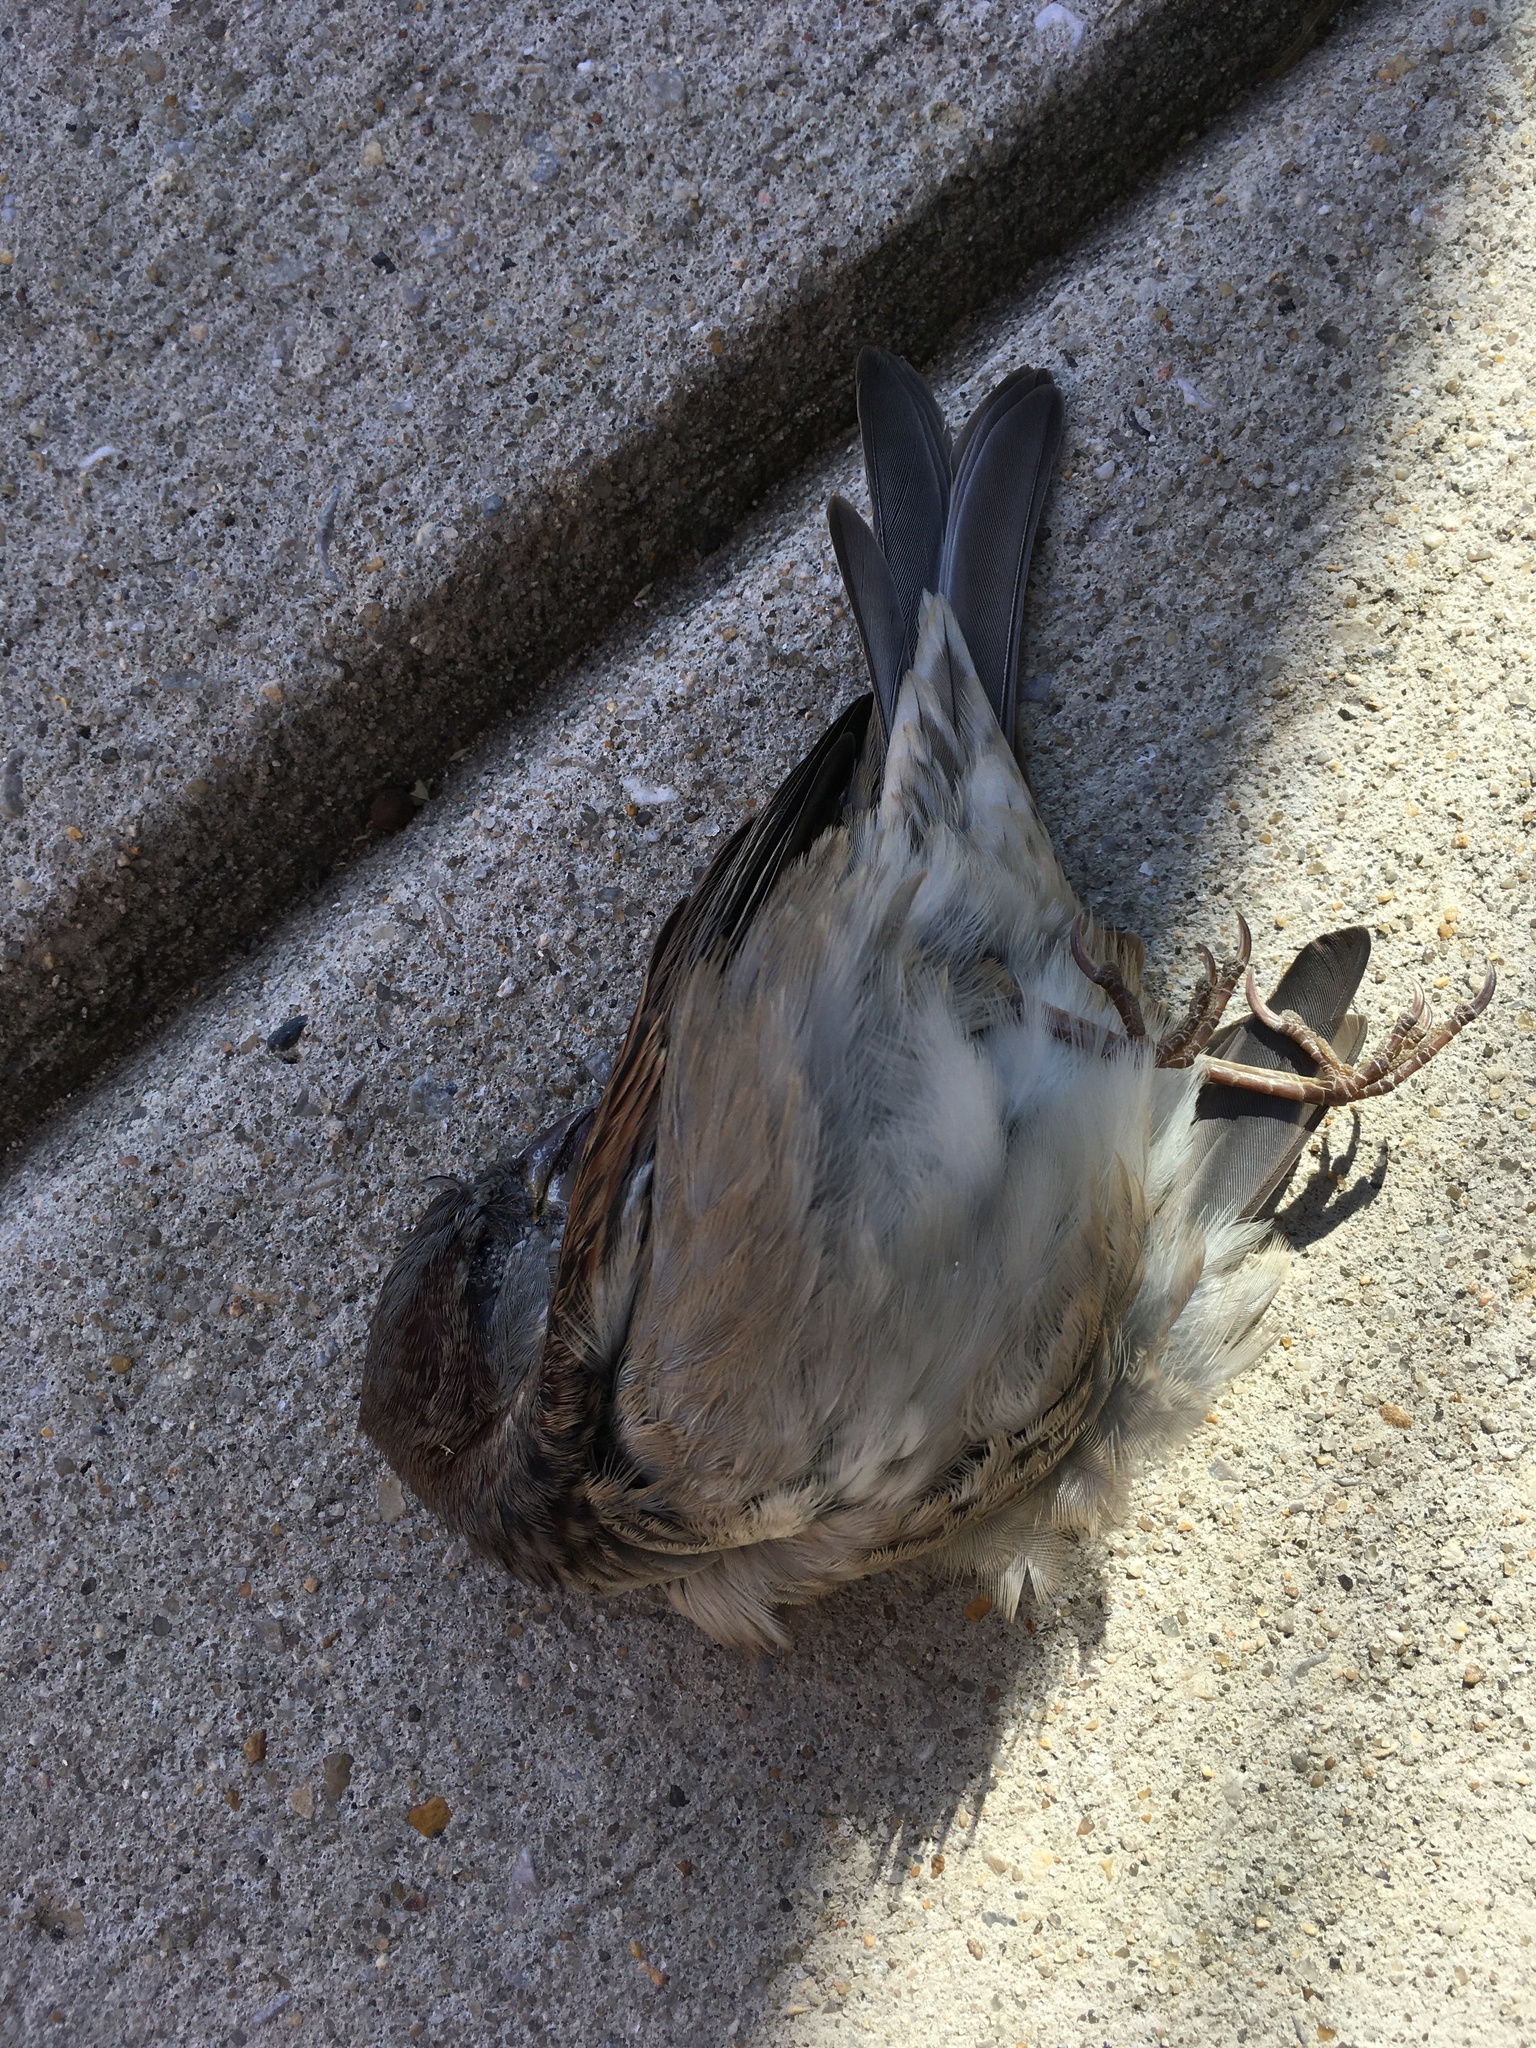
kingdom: Animalia
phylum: Chordata
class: Aves
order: Passeriformes
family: Passeridae
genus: Passer
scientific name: Passer domesticus
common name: House sparrow
